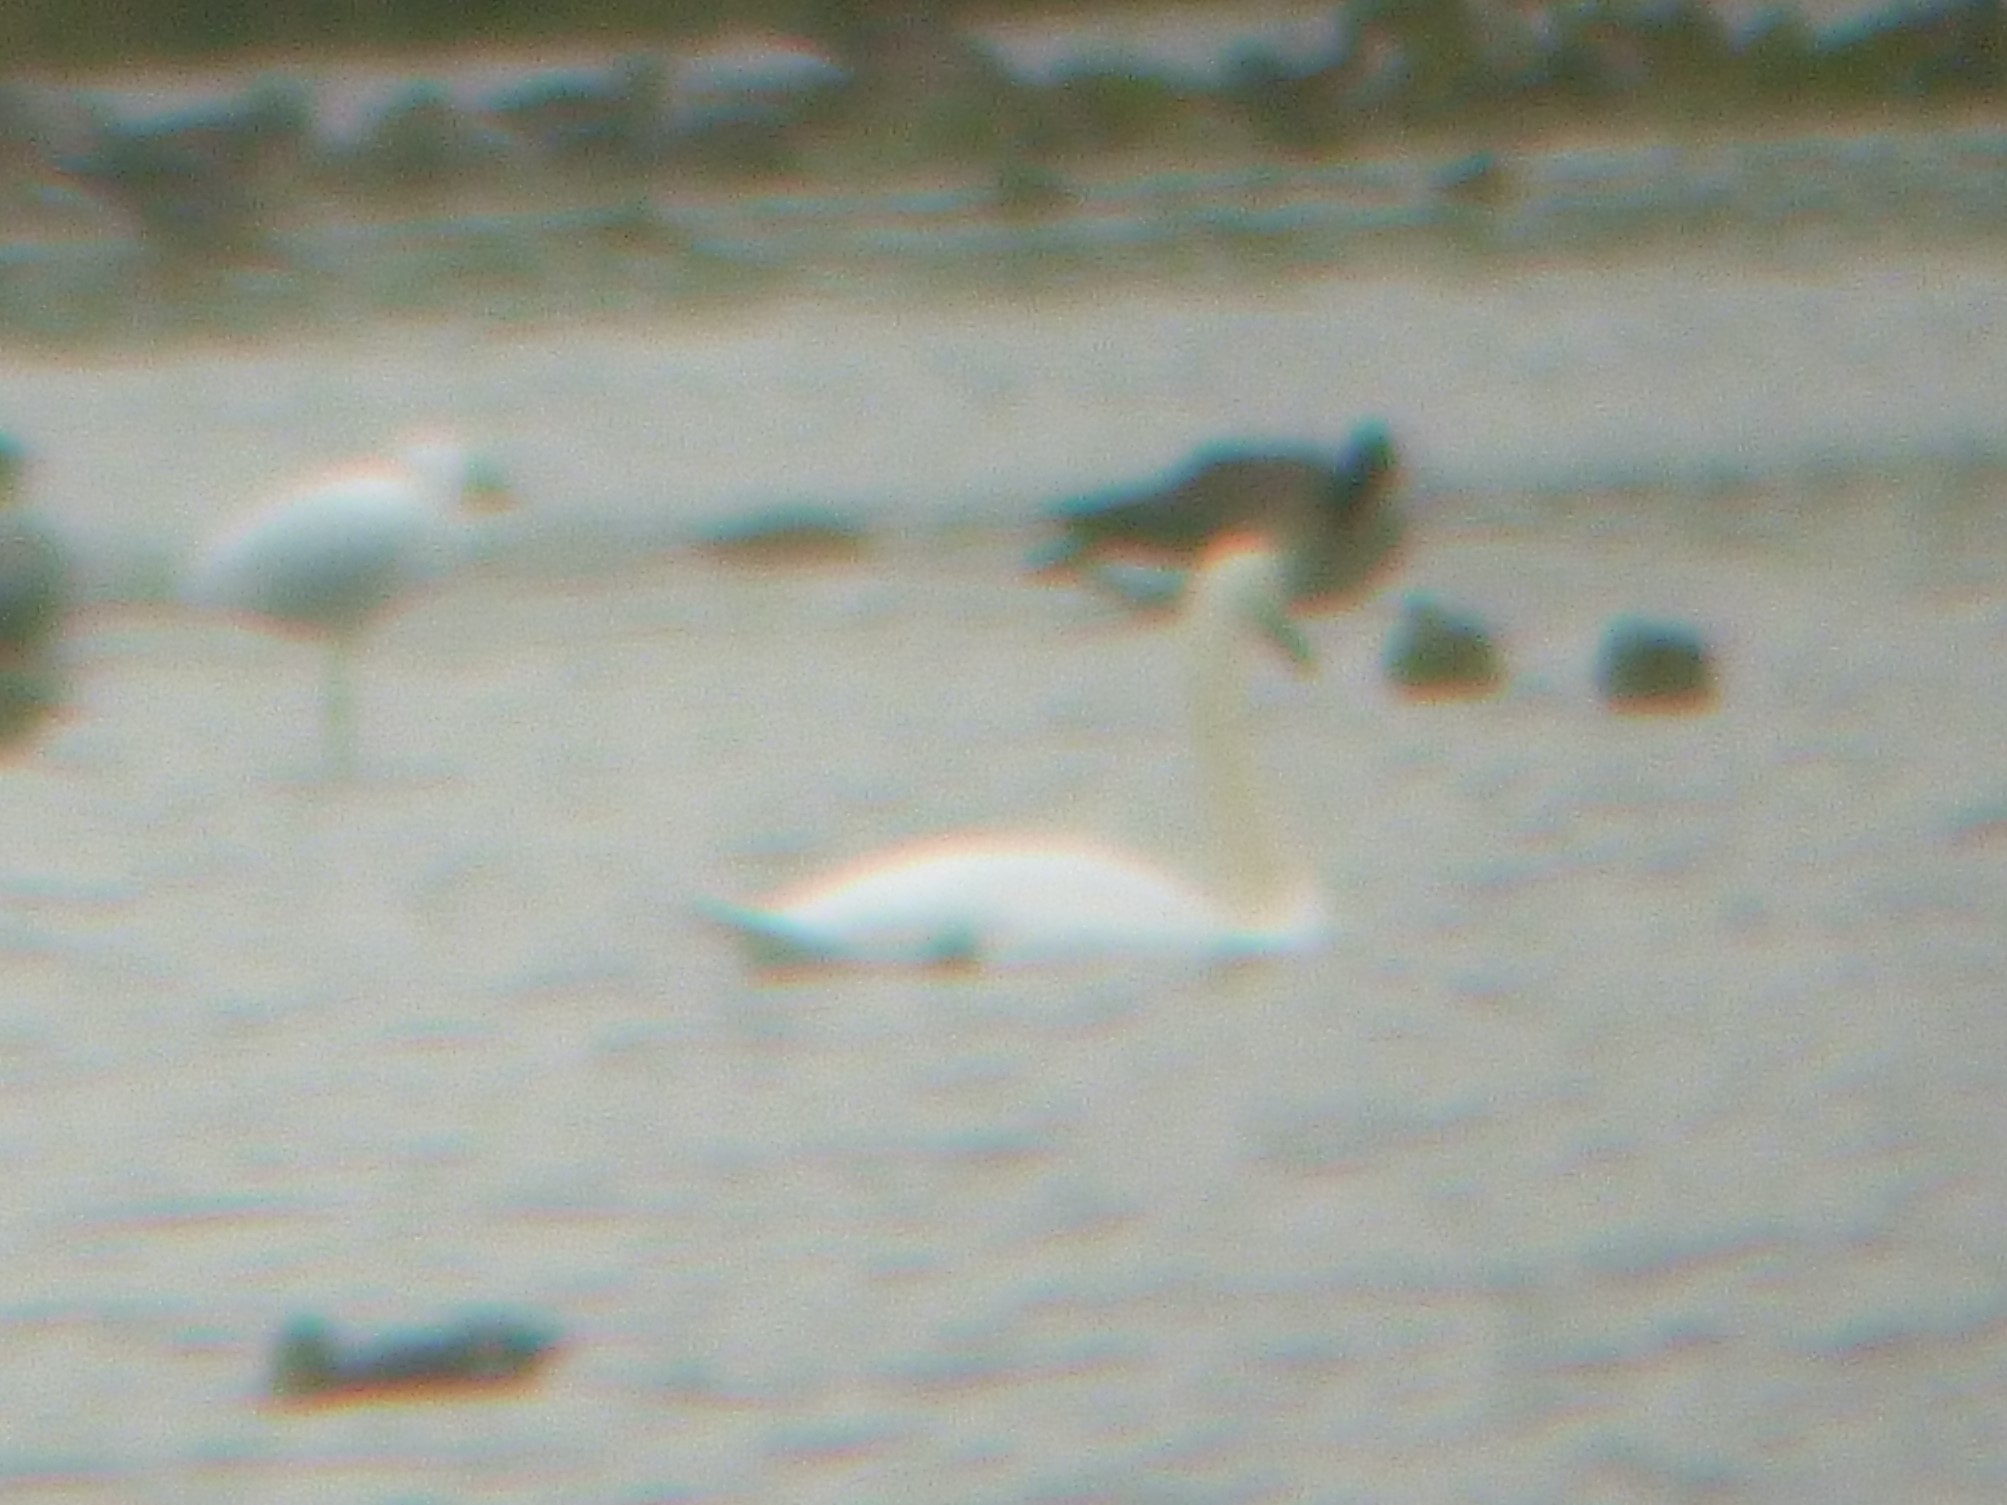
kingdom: Animalia
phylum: Chordata
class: Aves
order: Anseriformes
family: Anatidae
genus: Cygnus
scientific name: Cygnus olor
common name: Mute swan
